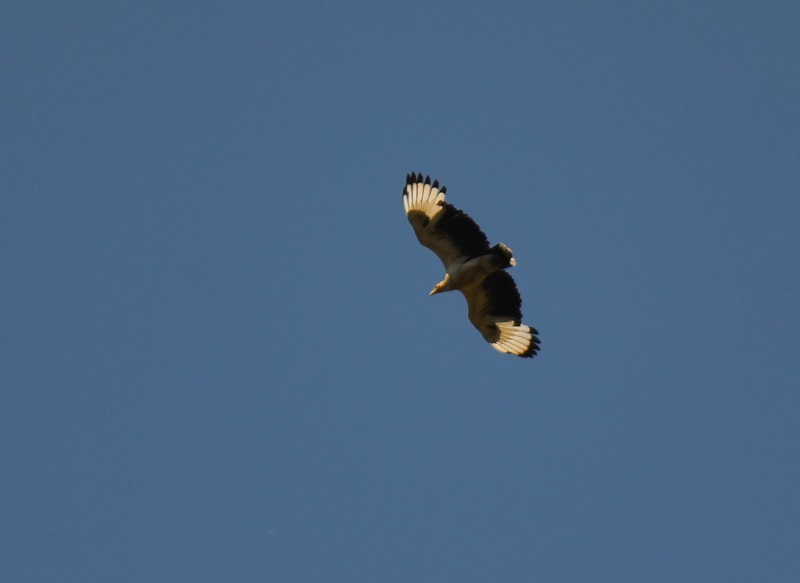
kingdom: Animalia
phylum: Chordata
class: Aves
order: Accipitriformes
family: Accipitridae
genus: Gypohierax
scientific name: Gypohierax angolensis
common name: Palm-nut vulture
